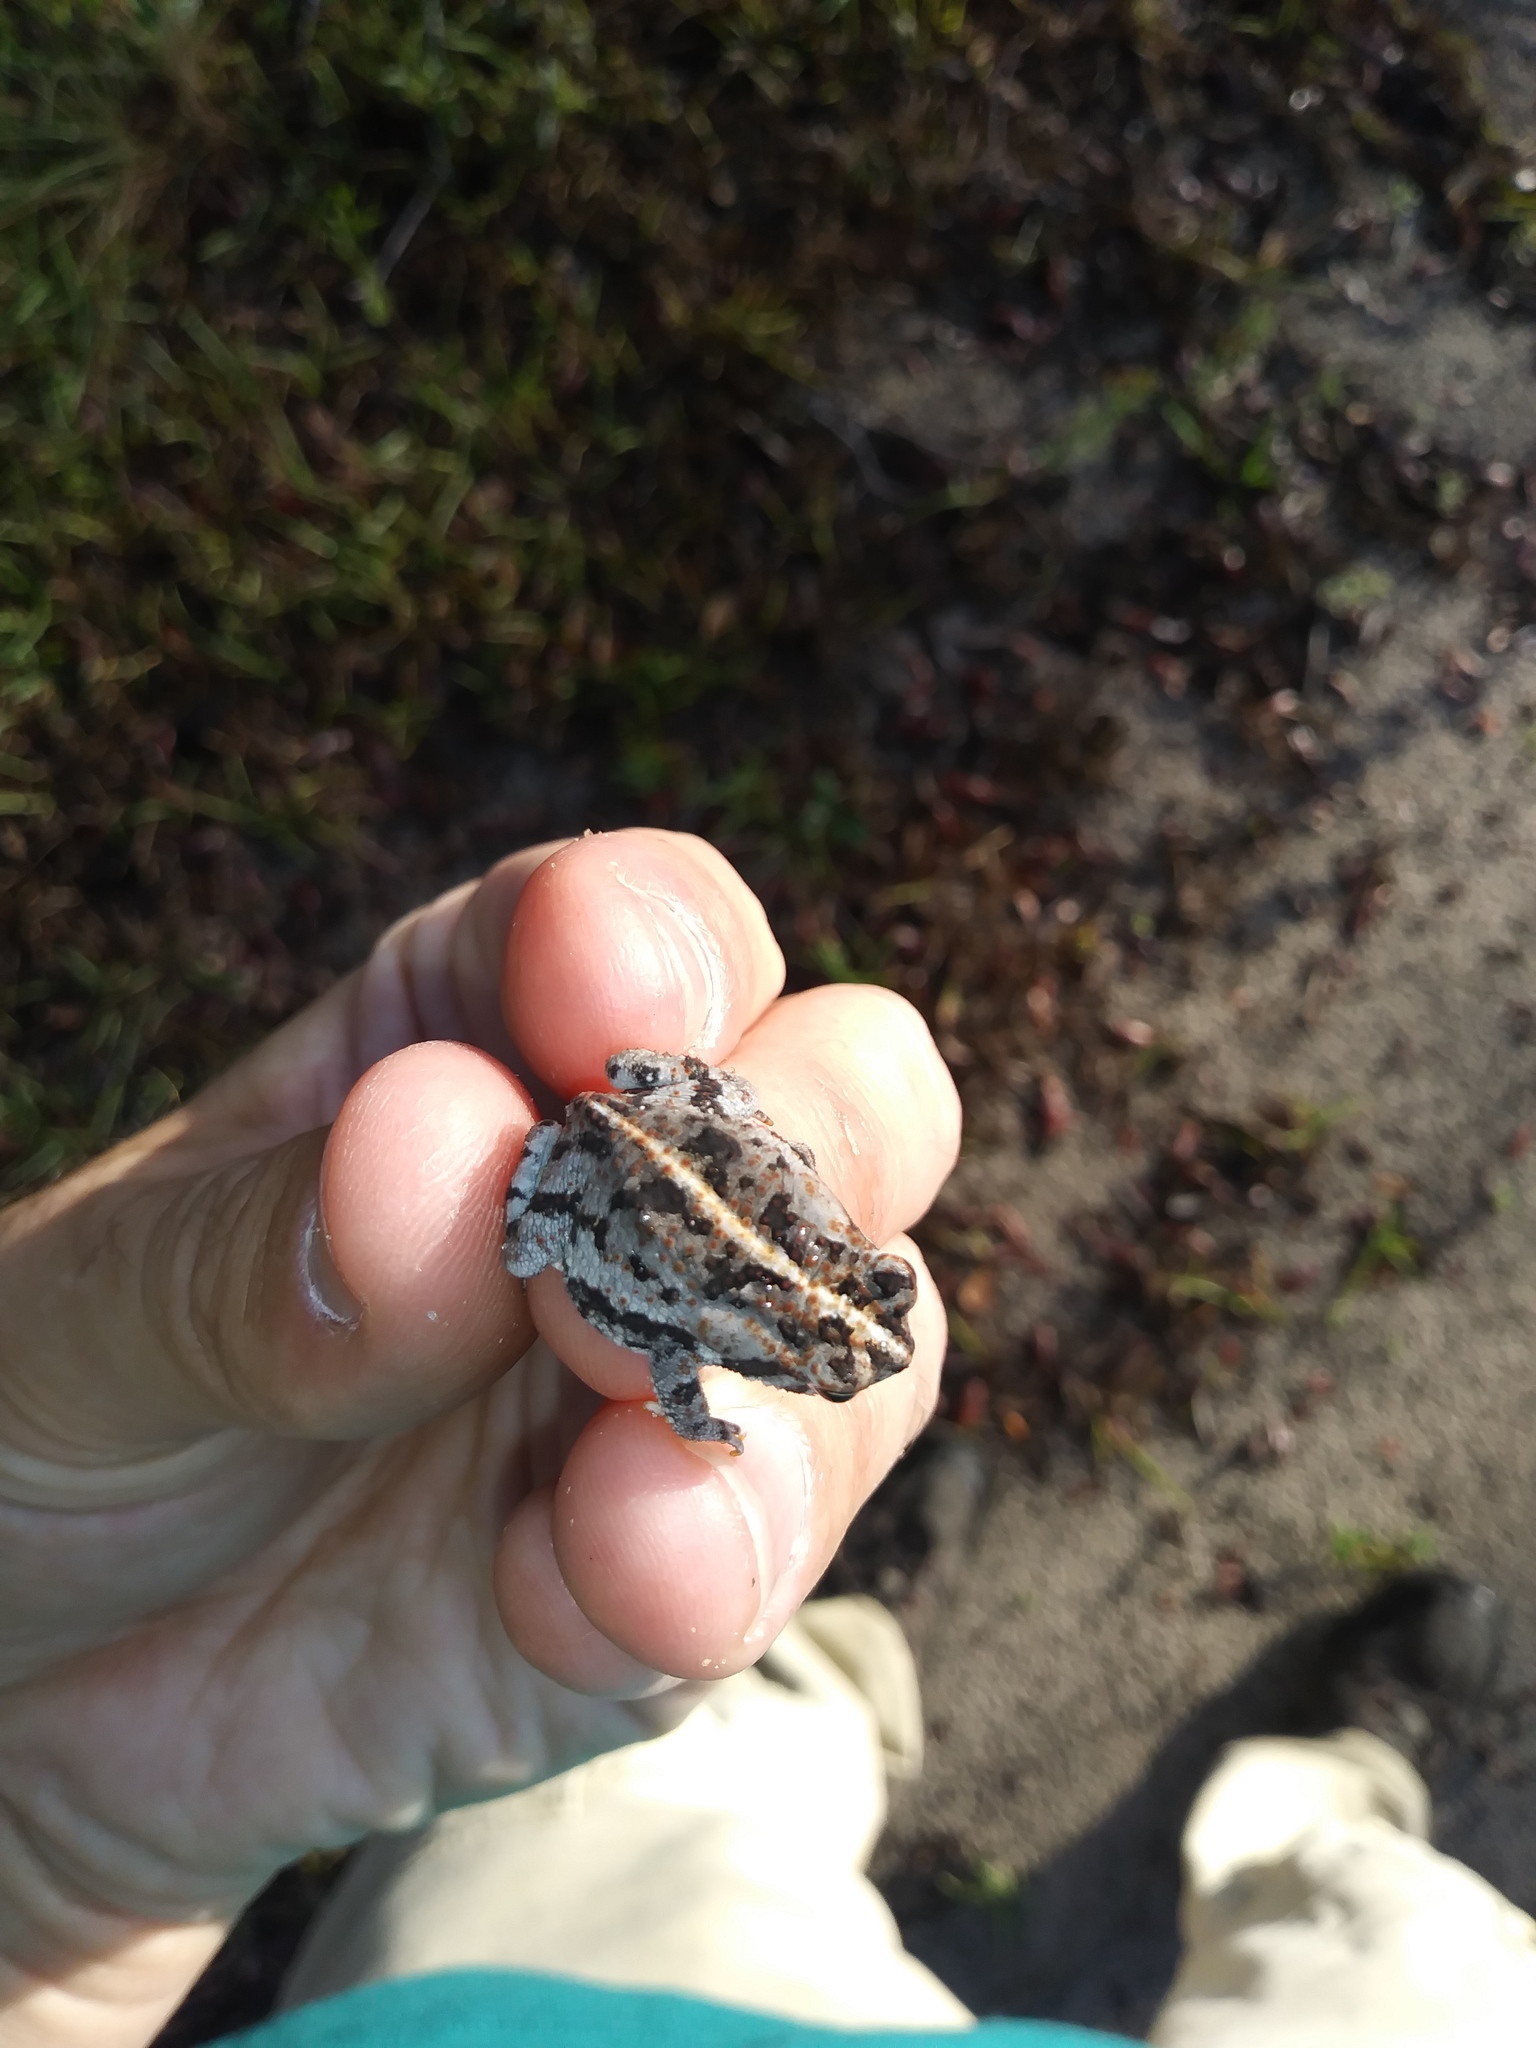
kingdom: Animalia
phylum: Chordata
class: Amphibia
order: Anura
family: Bufonidae
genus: Anaxyrus
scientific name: Anaxyrus quercicus
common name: Oak toad
